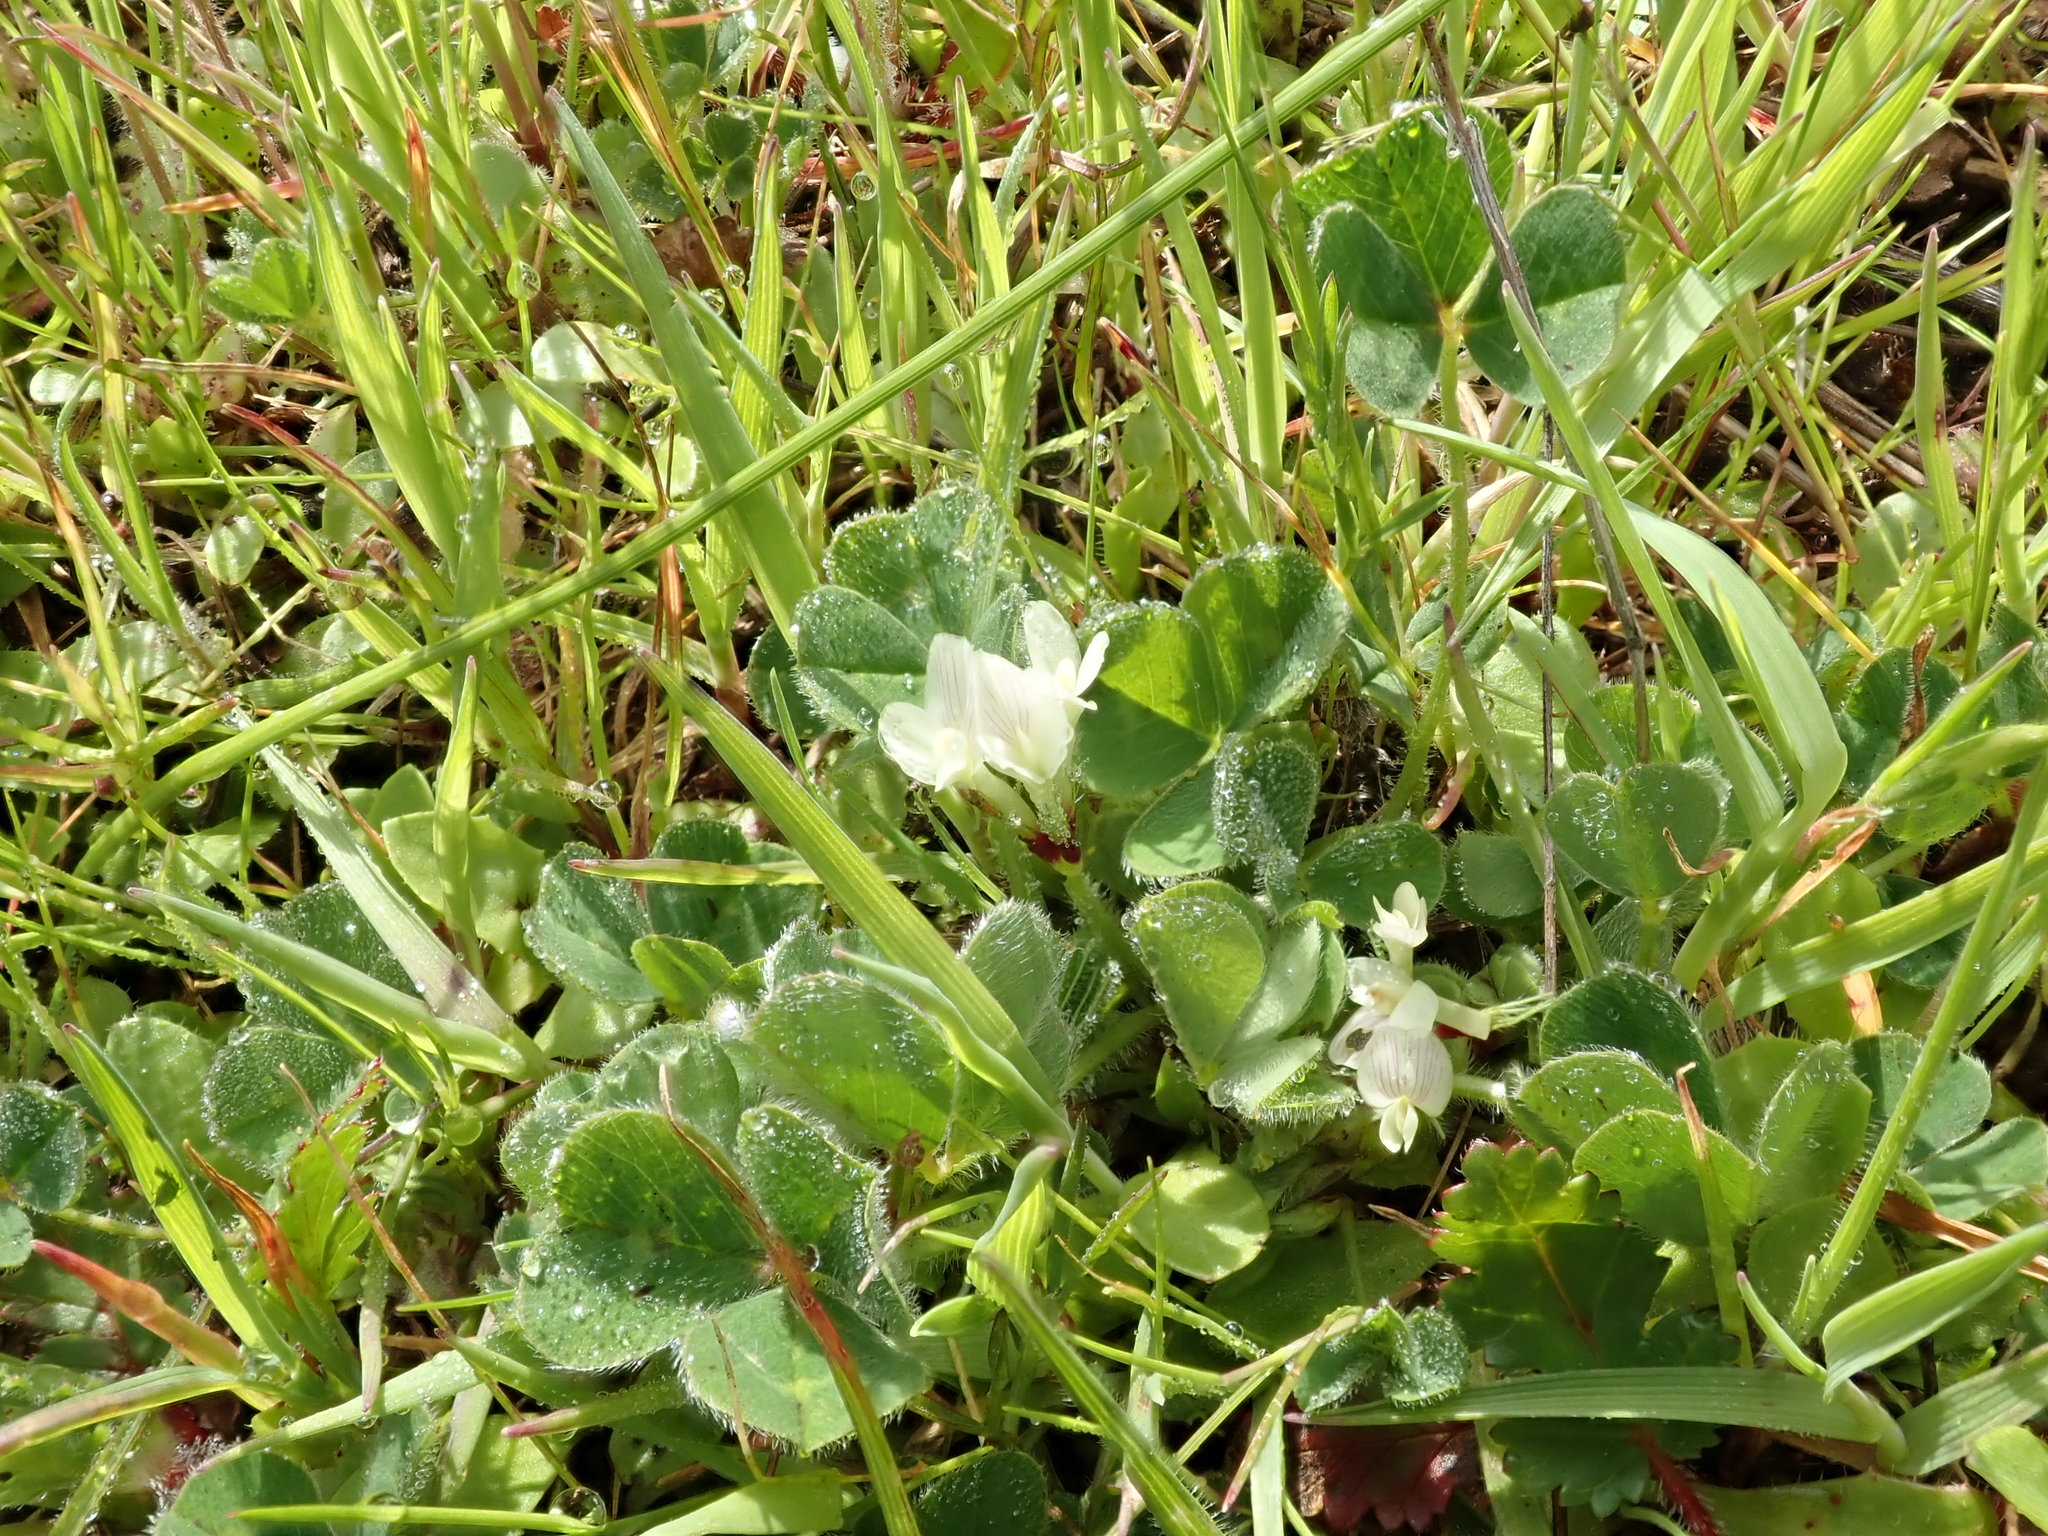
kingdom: Plantae
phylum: Tracheophyta
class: Magnoliopsida
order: Fabales
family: Fabaceae
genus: Trifolium
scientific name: Trifolium subterraneum
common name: Subterranean clover
